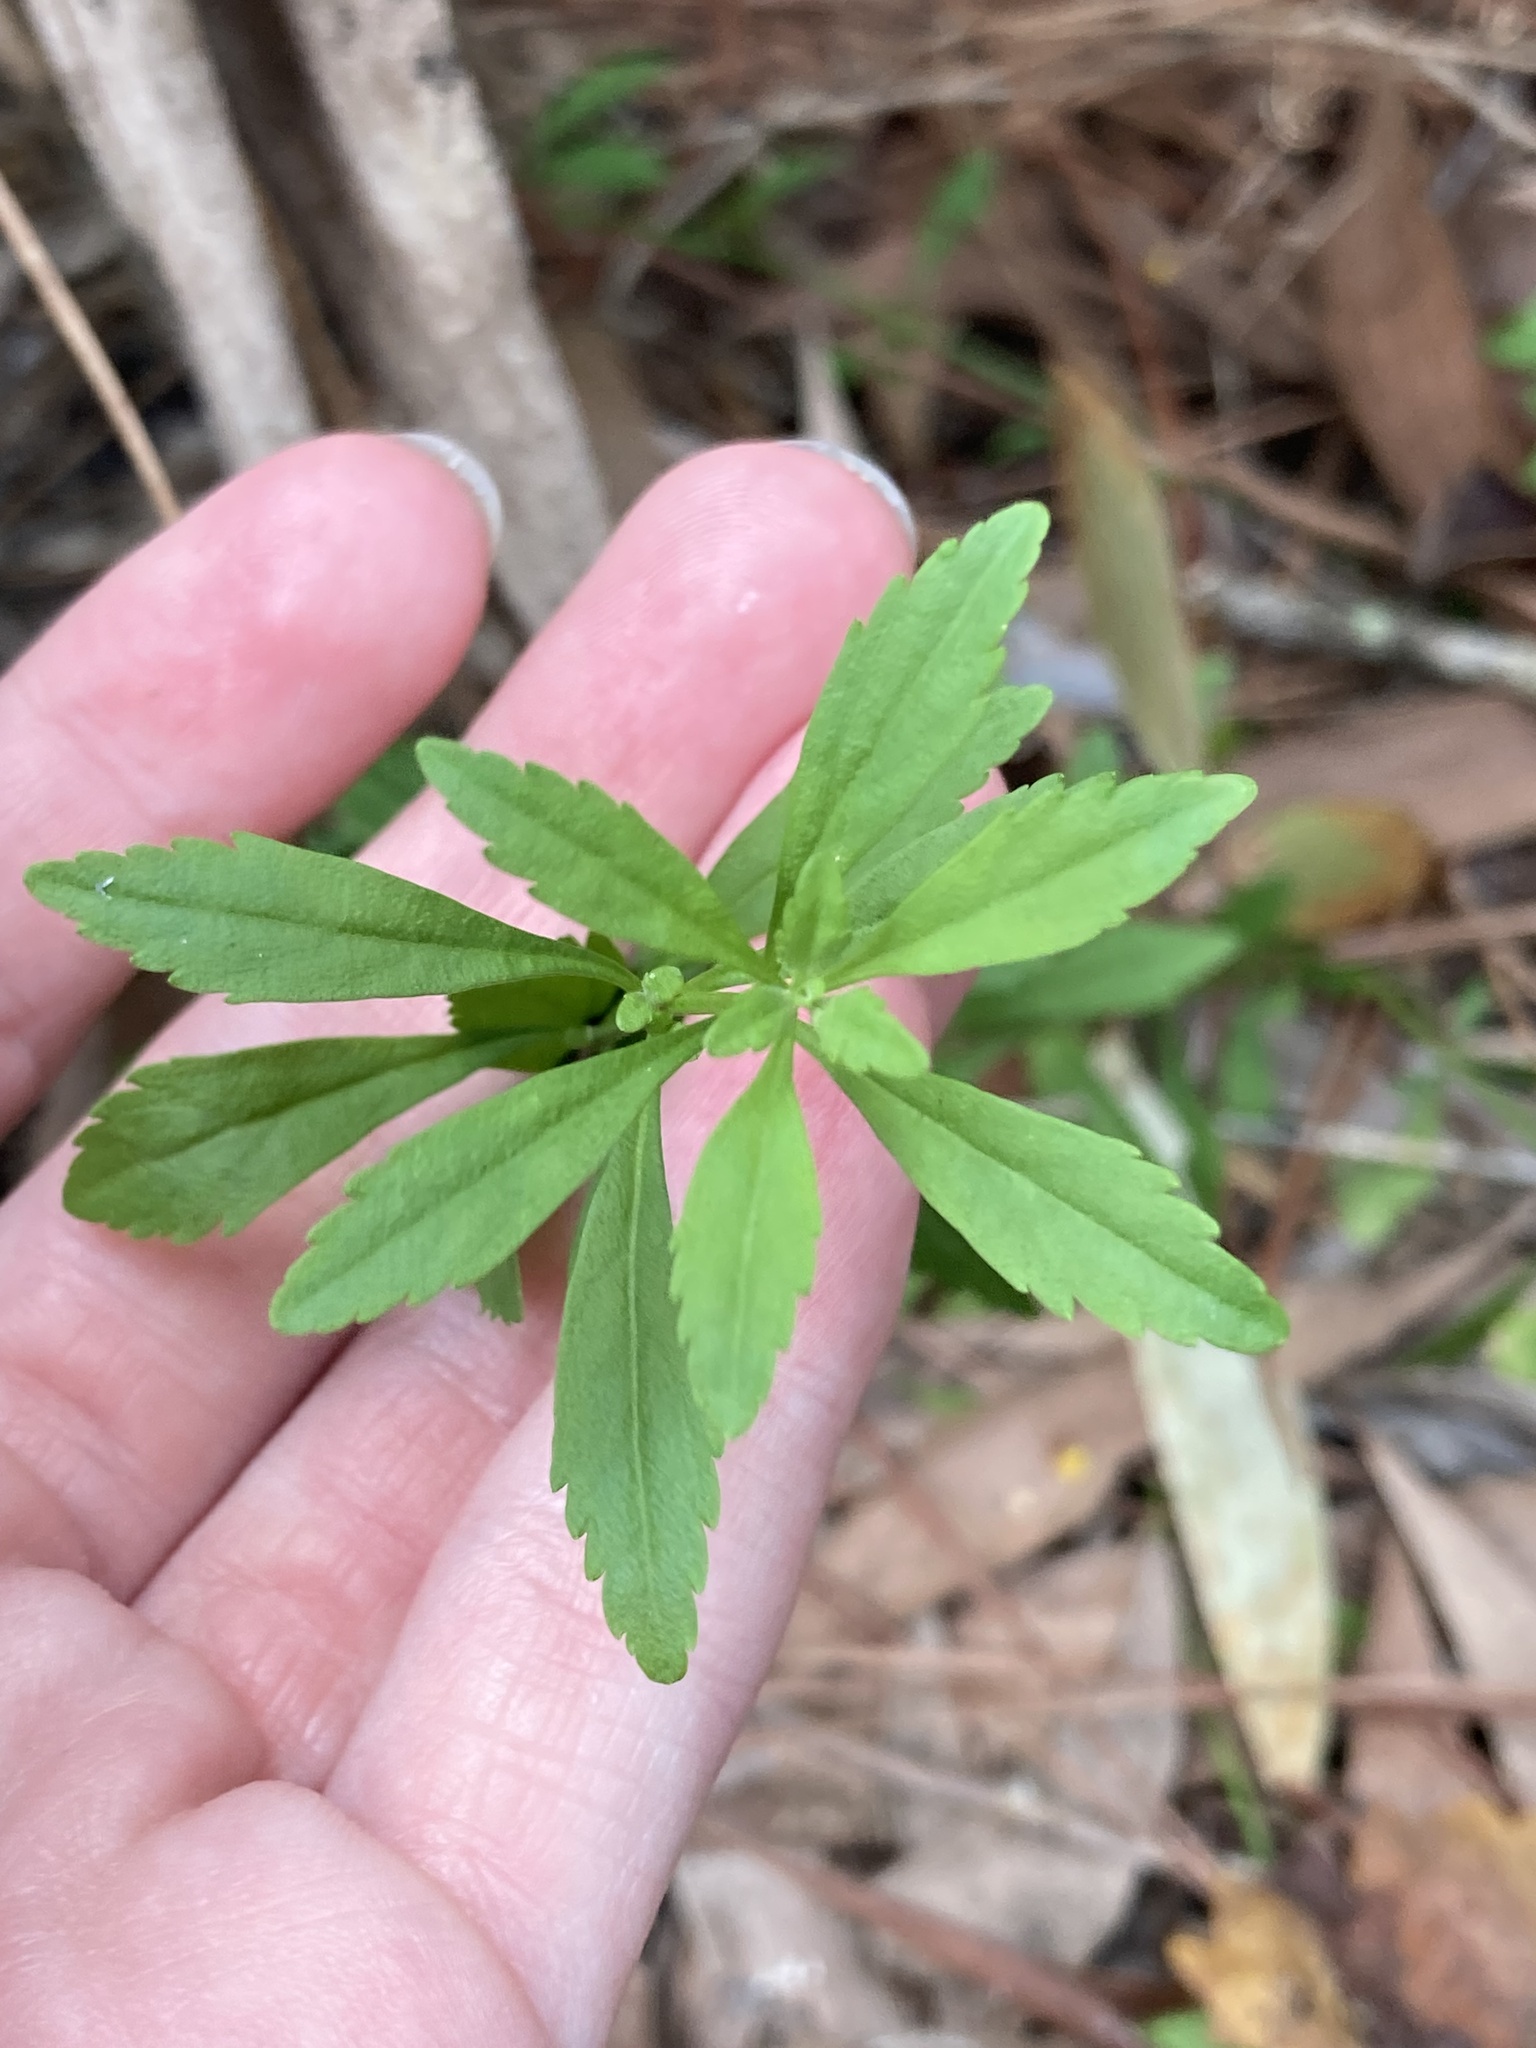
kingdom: Plantae
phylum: Tracheophyta
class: Magnoliopsida
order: Lamiales
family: Plantaginaceae
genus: Scoparia
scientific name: Scoparia dulcis
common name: Scoparia-weed
